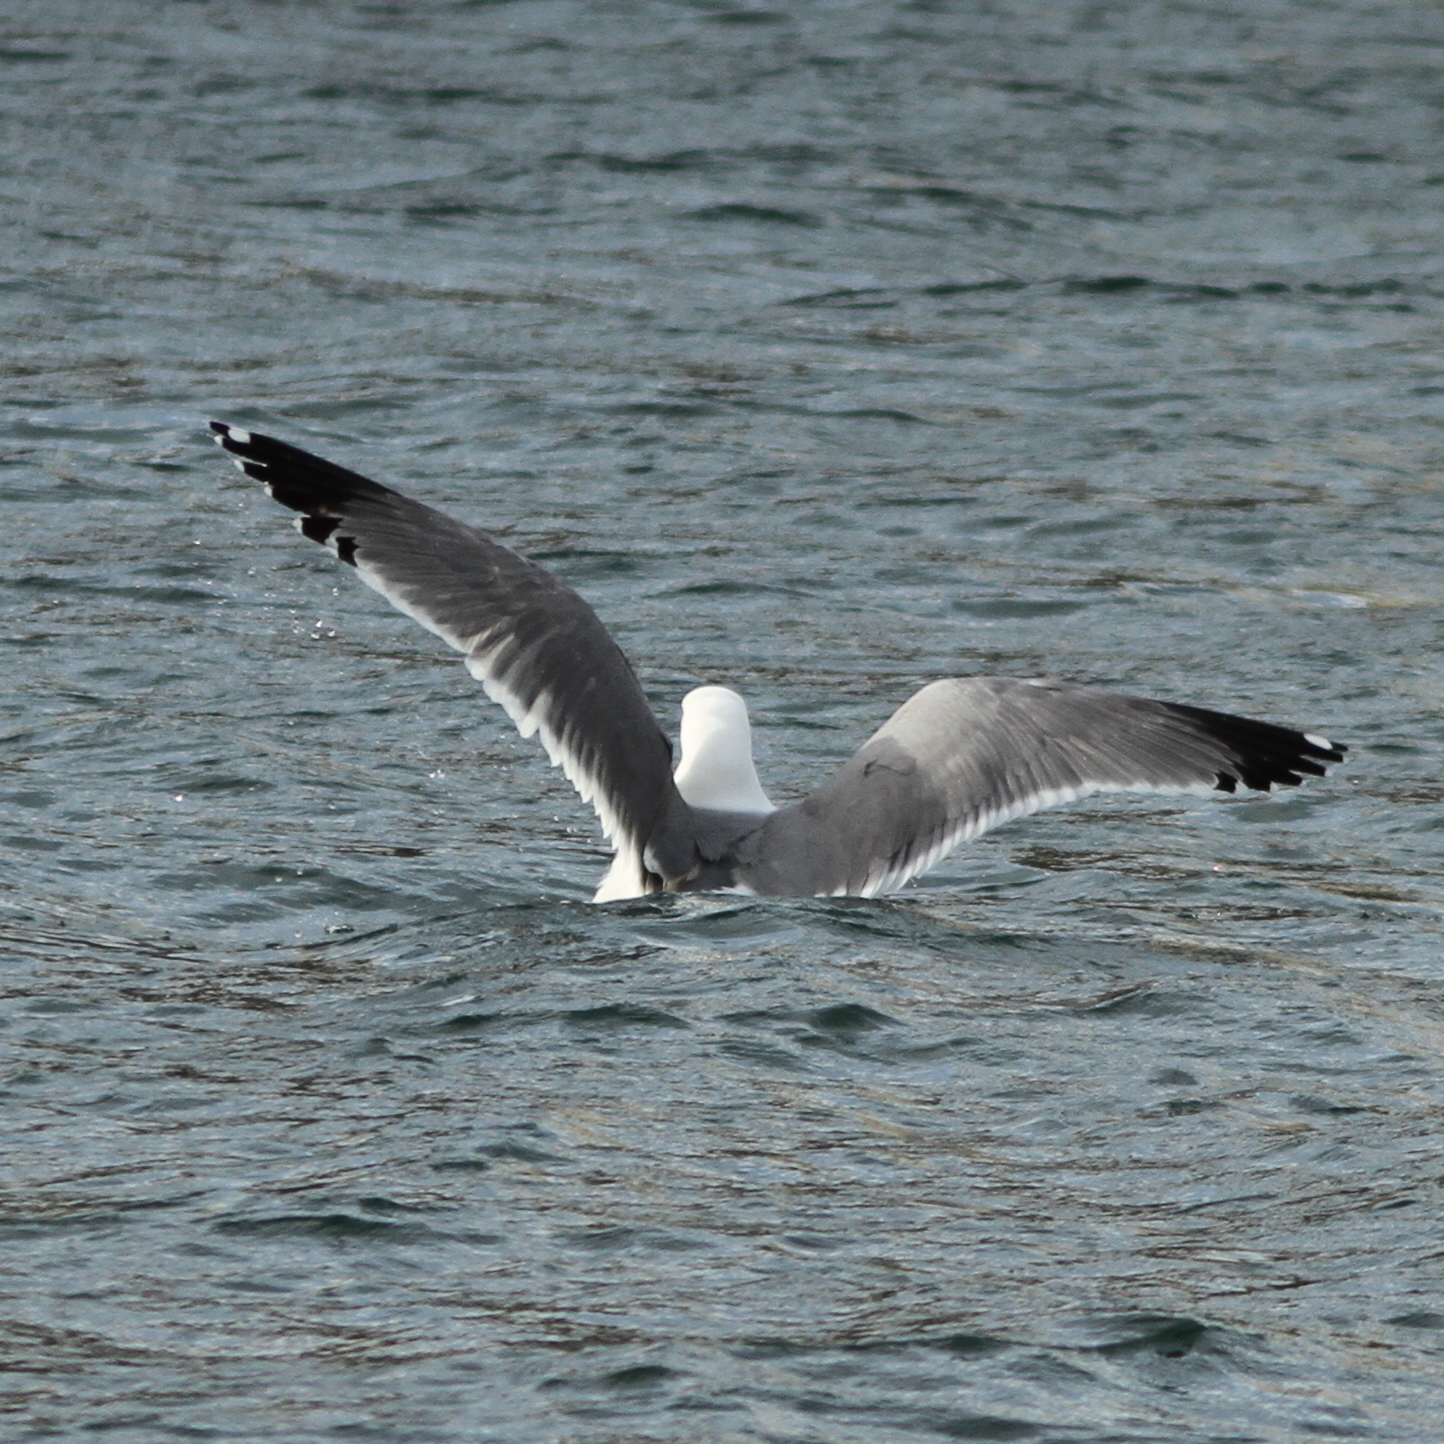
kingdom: Animalia
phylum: Chordata
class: Aves
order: Charadriiformes
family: Laridae
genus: Larus
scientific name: Larus michahellis
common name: Yellow-legged gull
